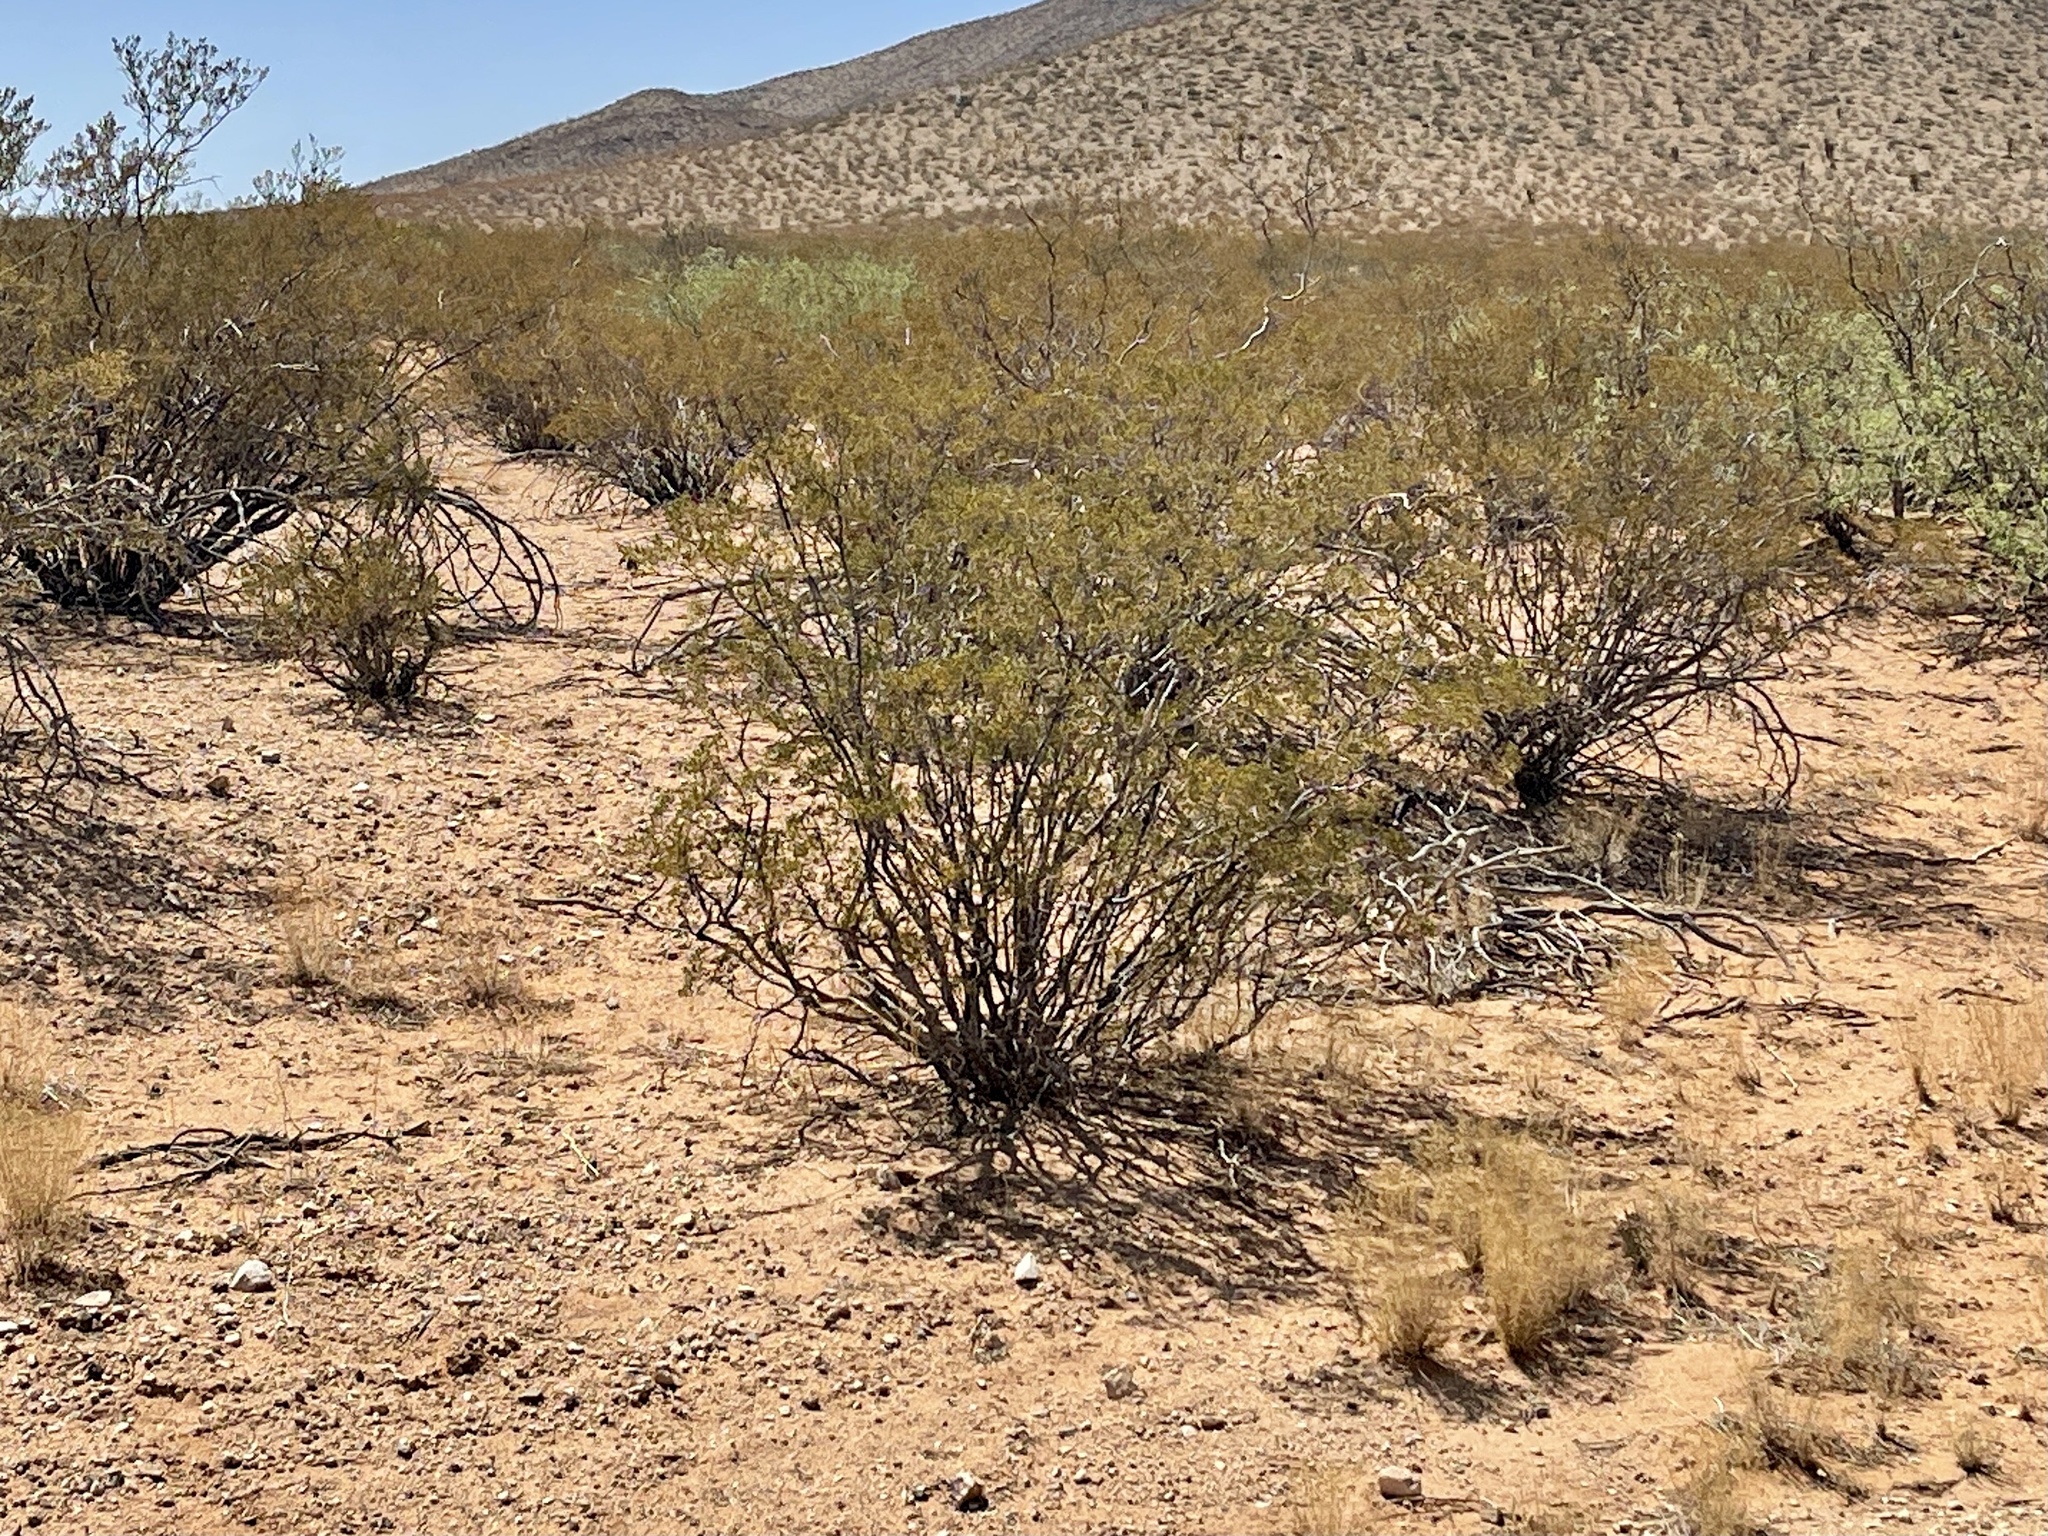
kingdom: Plantae
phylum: Tracheophyta
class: Magnoliopsida
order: Zygophyllales
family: Zygophyllaceae
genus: Larrea
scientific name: Larrea tridentata
